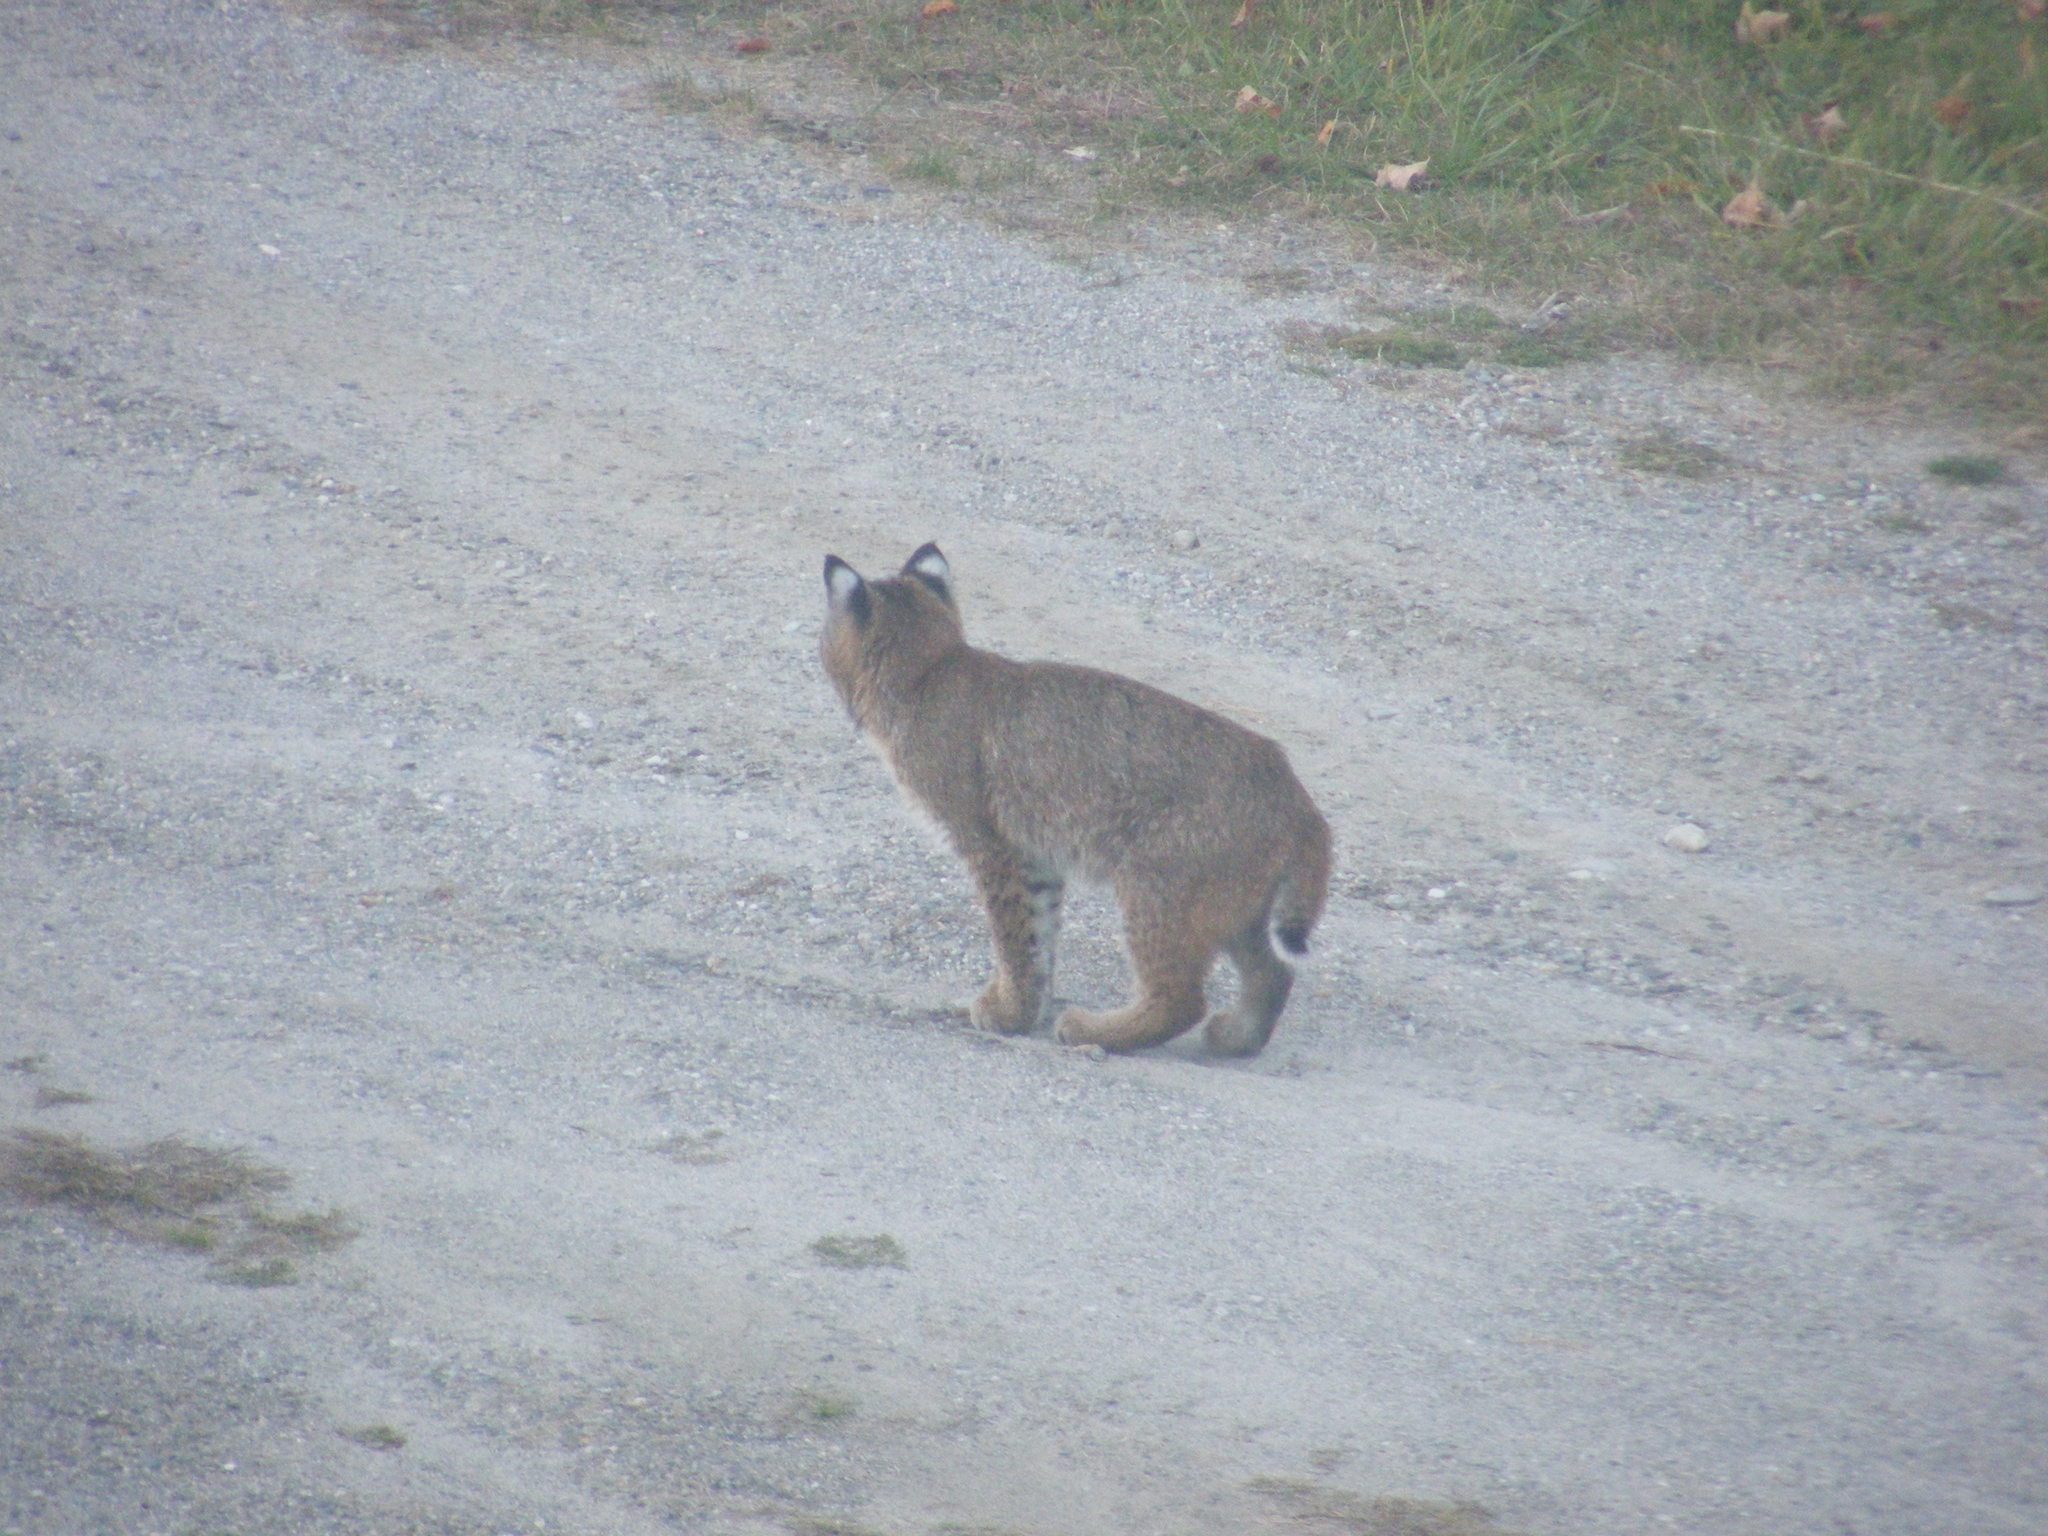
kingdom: Animalia
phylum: Chordata
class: Mammalia
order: Carnivora
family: Felidae
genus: Lynx
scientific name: Lynx rufus
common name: Bobcat
